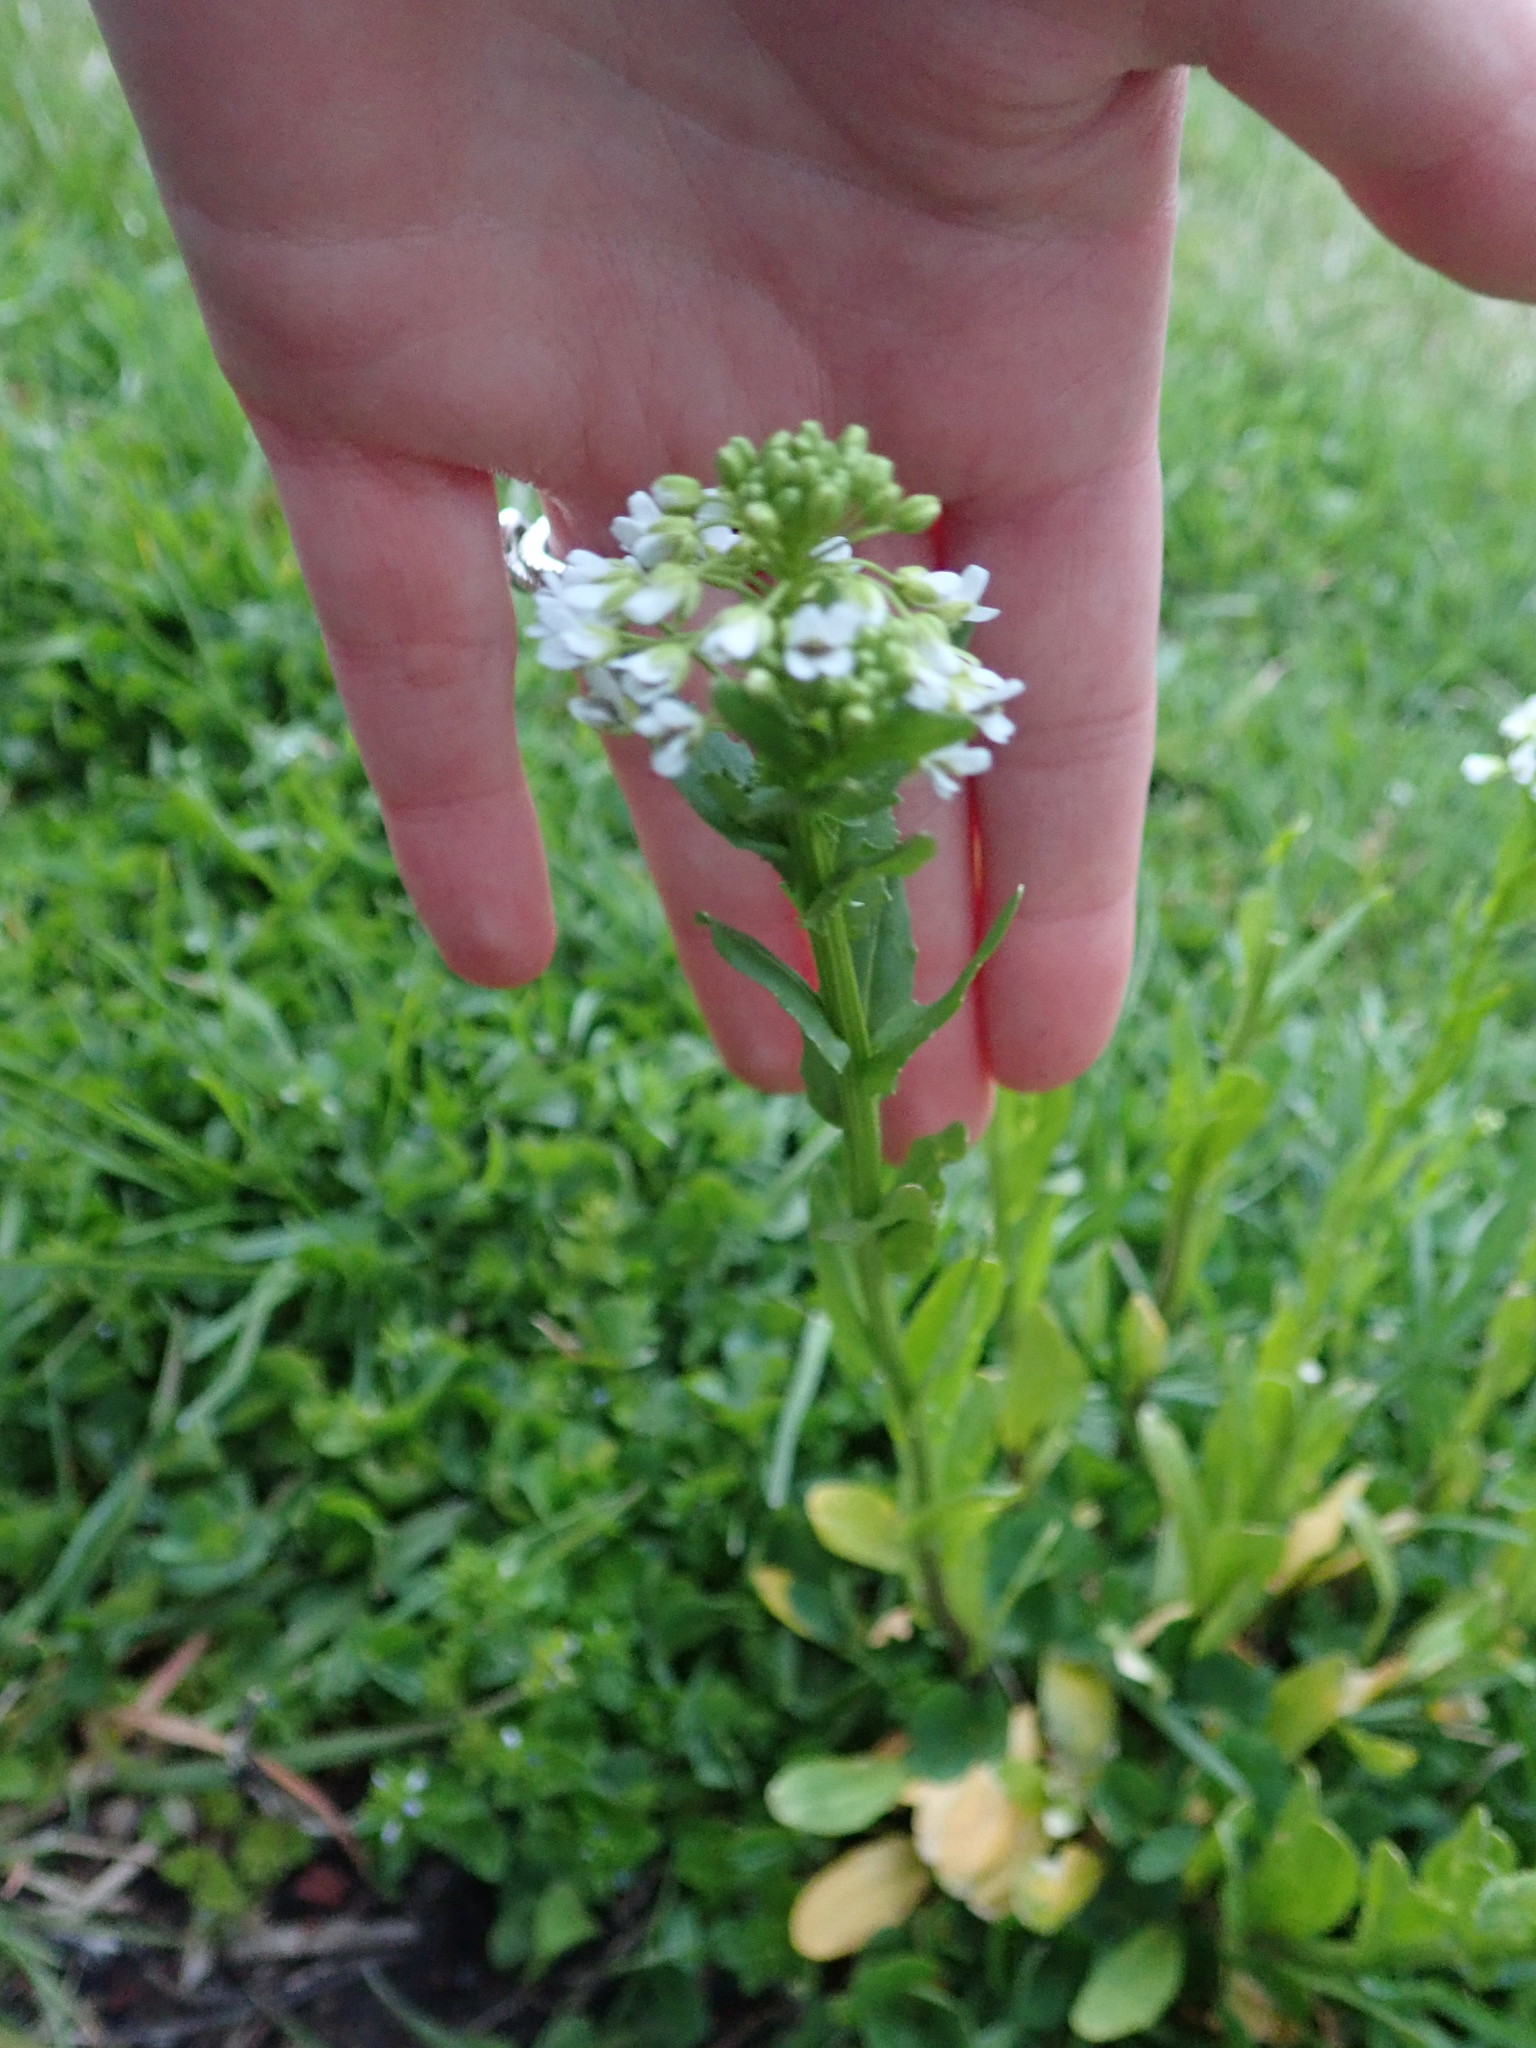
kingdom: Plantae
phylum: Tracheophyta
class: Magnoliopsida
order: Brassicales
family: Brassicaceae
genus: Thlaspi
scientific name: Thlaspi arvense
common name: Field pennycress
